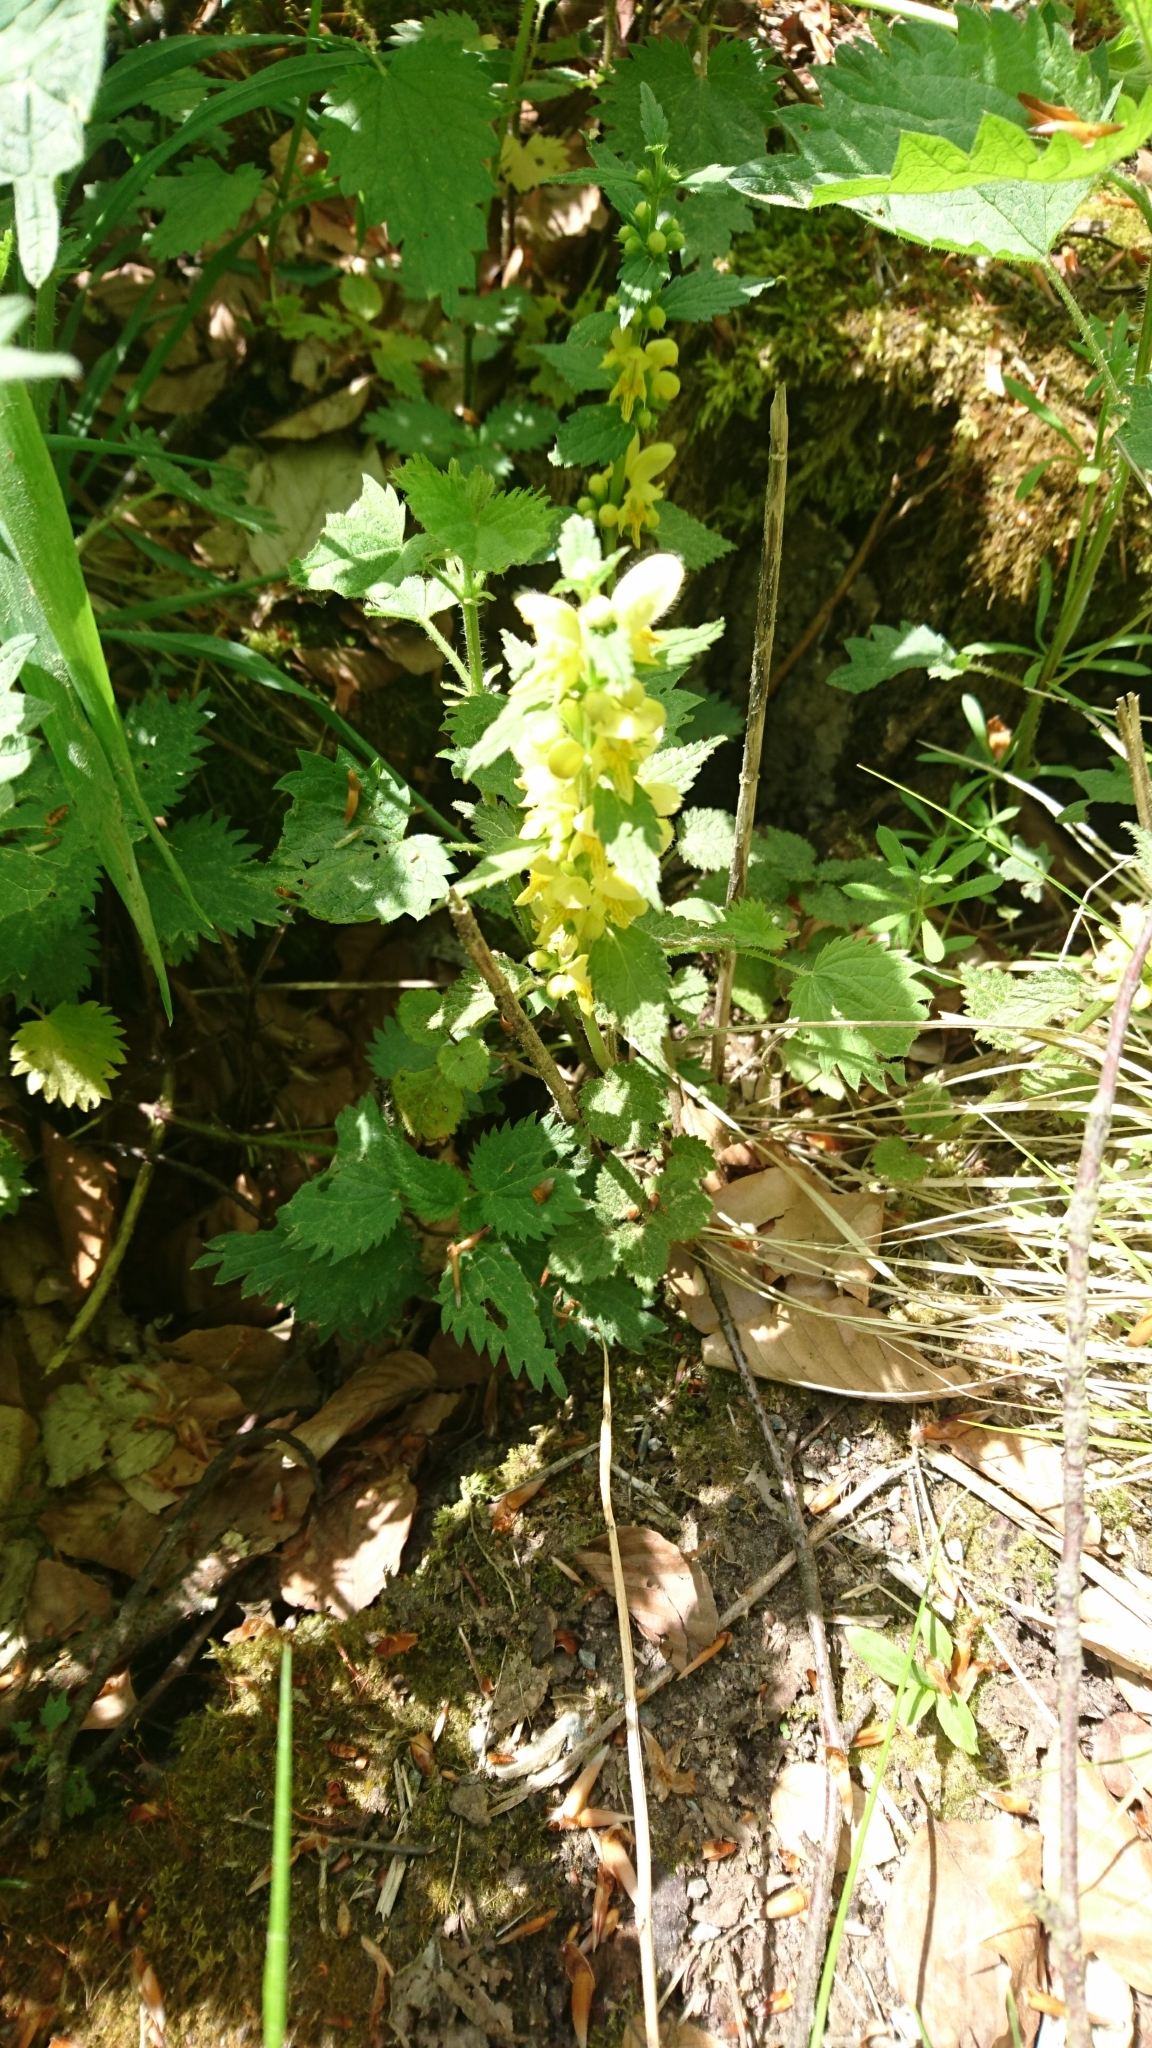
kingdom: Plantae
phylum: Tracheophyta
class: Magnoliopsida
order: Lamiales
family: Lamiaceae
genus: Lamium
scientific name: Lamium galeobdolon
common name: Yellow archangel
